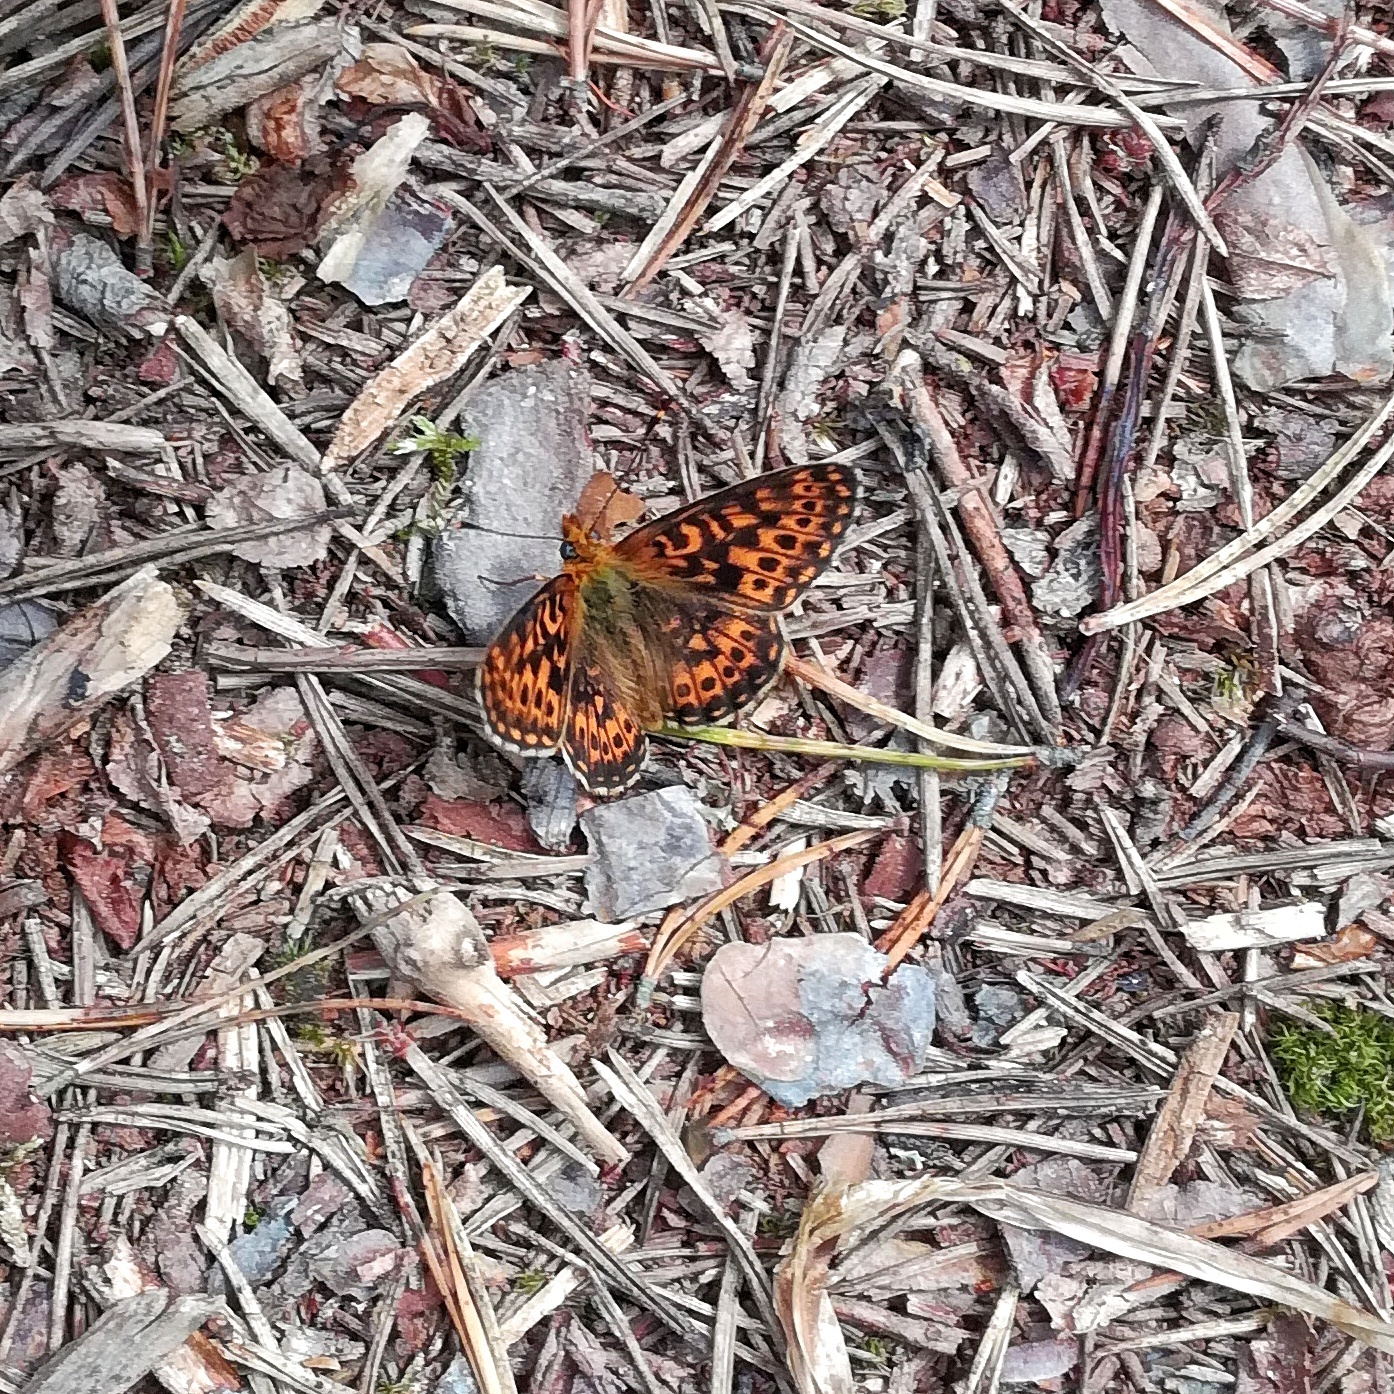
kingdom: Animalia
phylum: Arthropoda
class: Insecta
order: Lepidoptera
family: Nymphalidae
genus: Clossiana
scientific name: Clossiana euphrosyne
